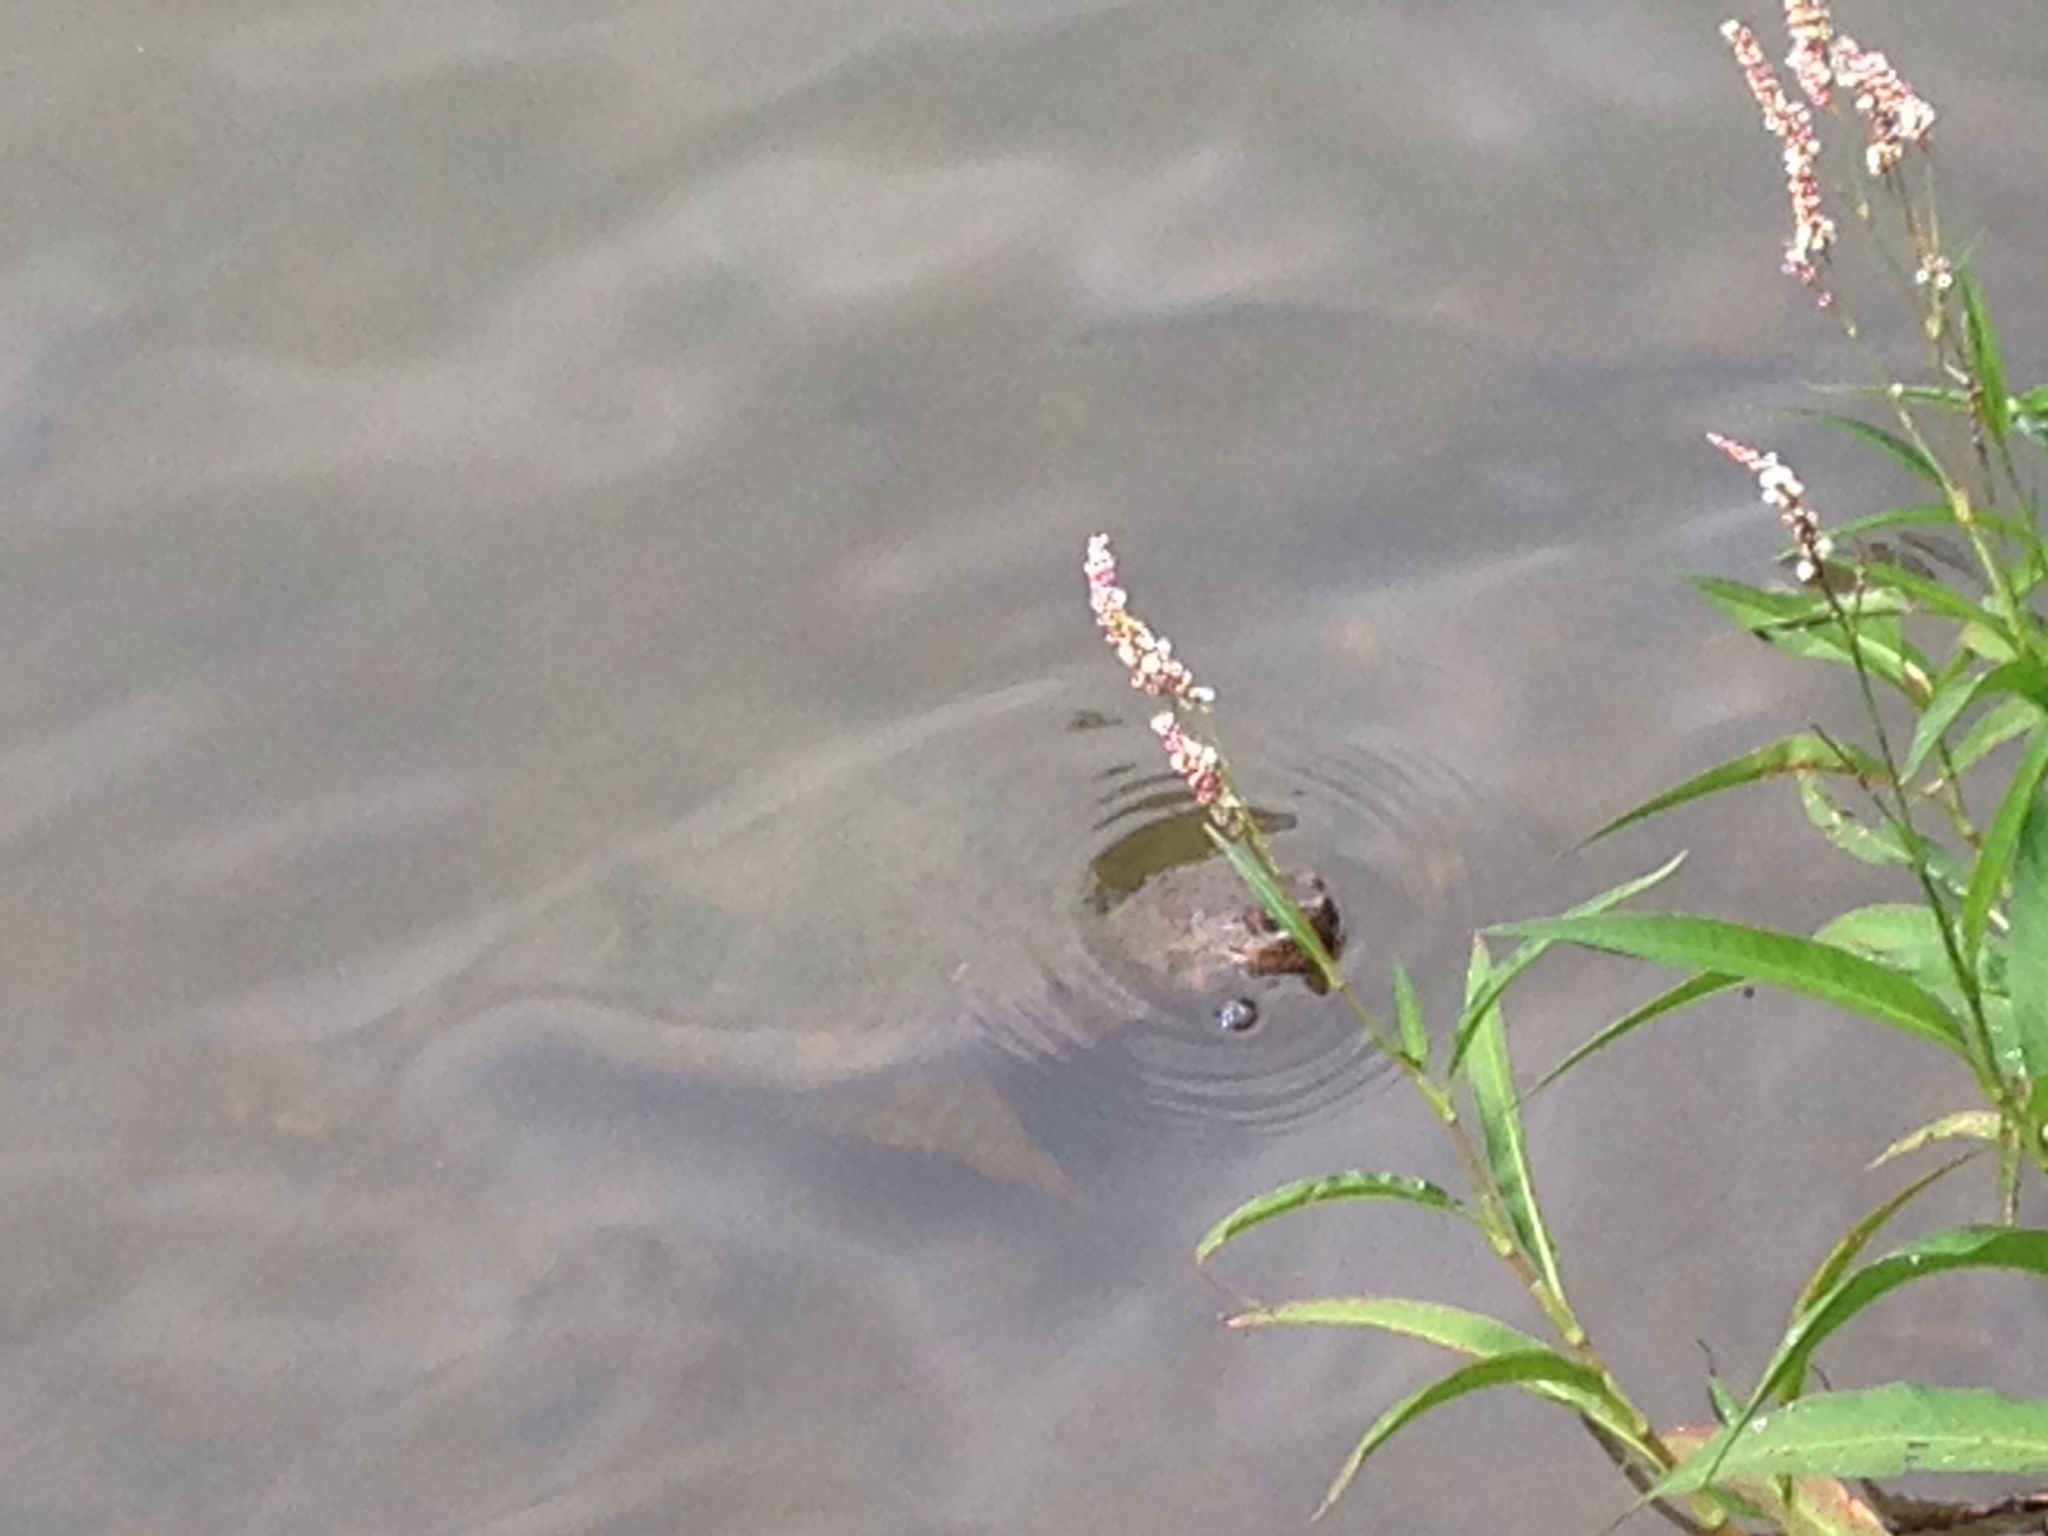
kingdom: Animalia
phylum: Chordata
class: Testudines
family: Chelydridae
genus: Chelydra
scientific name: Chelydra serpentina
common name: Common snapping turtle
